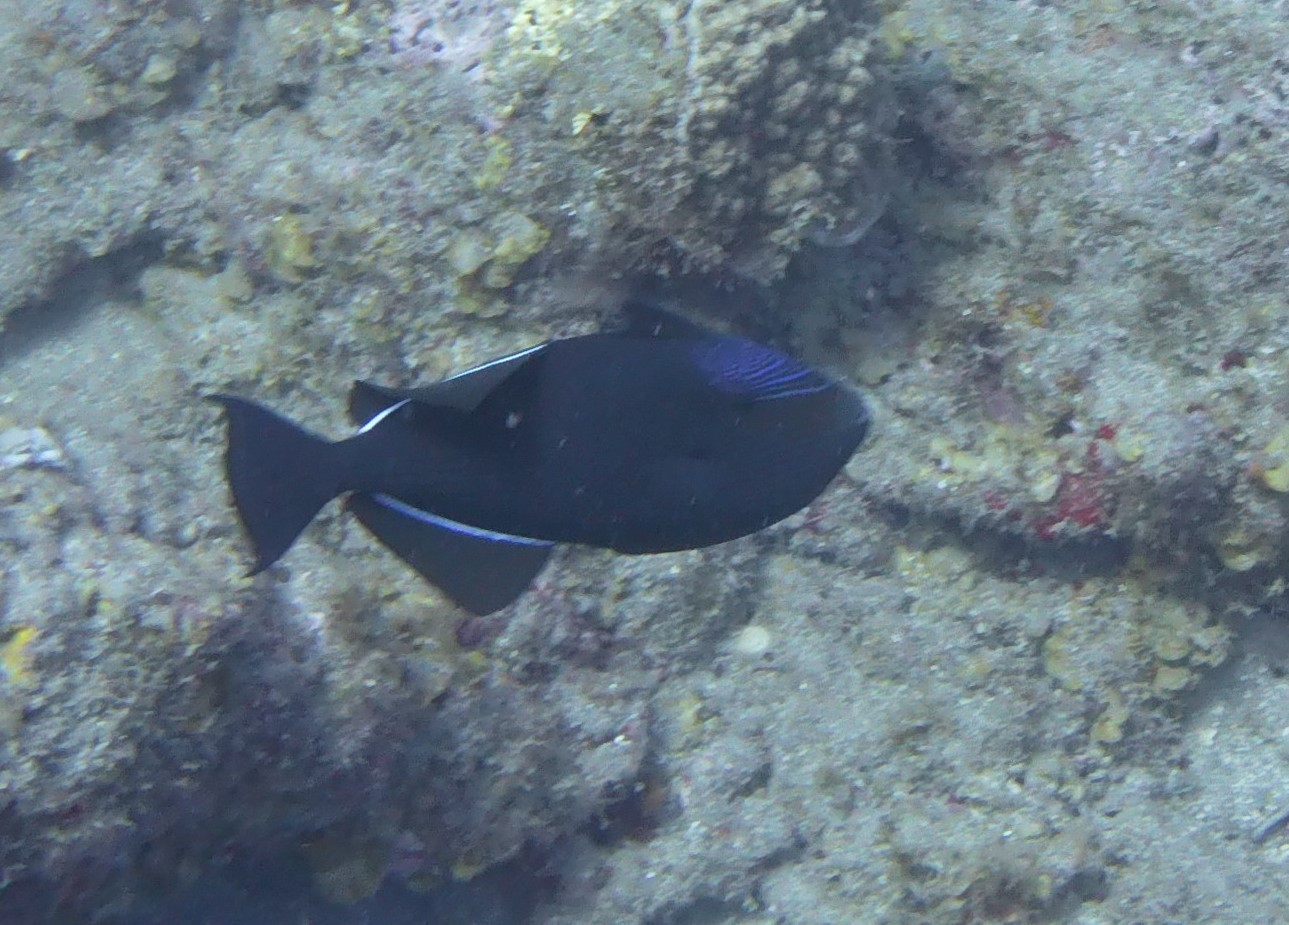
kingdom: Animalia
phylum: Chordata
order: Tetraodontiformes
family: Balistidae
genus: Melichthys
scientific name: Melichthys niger
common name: Black durgon
